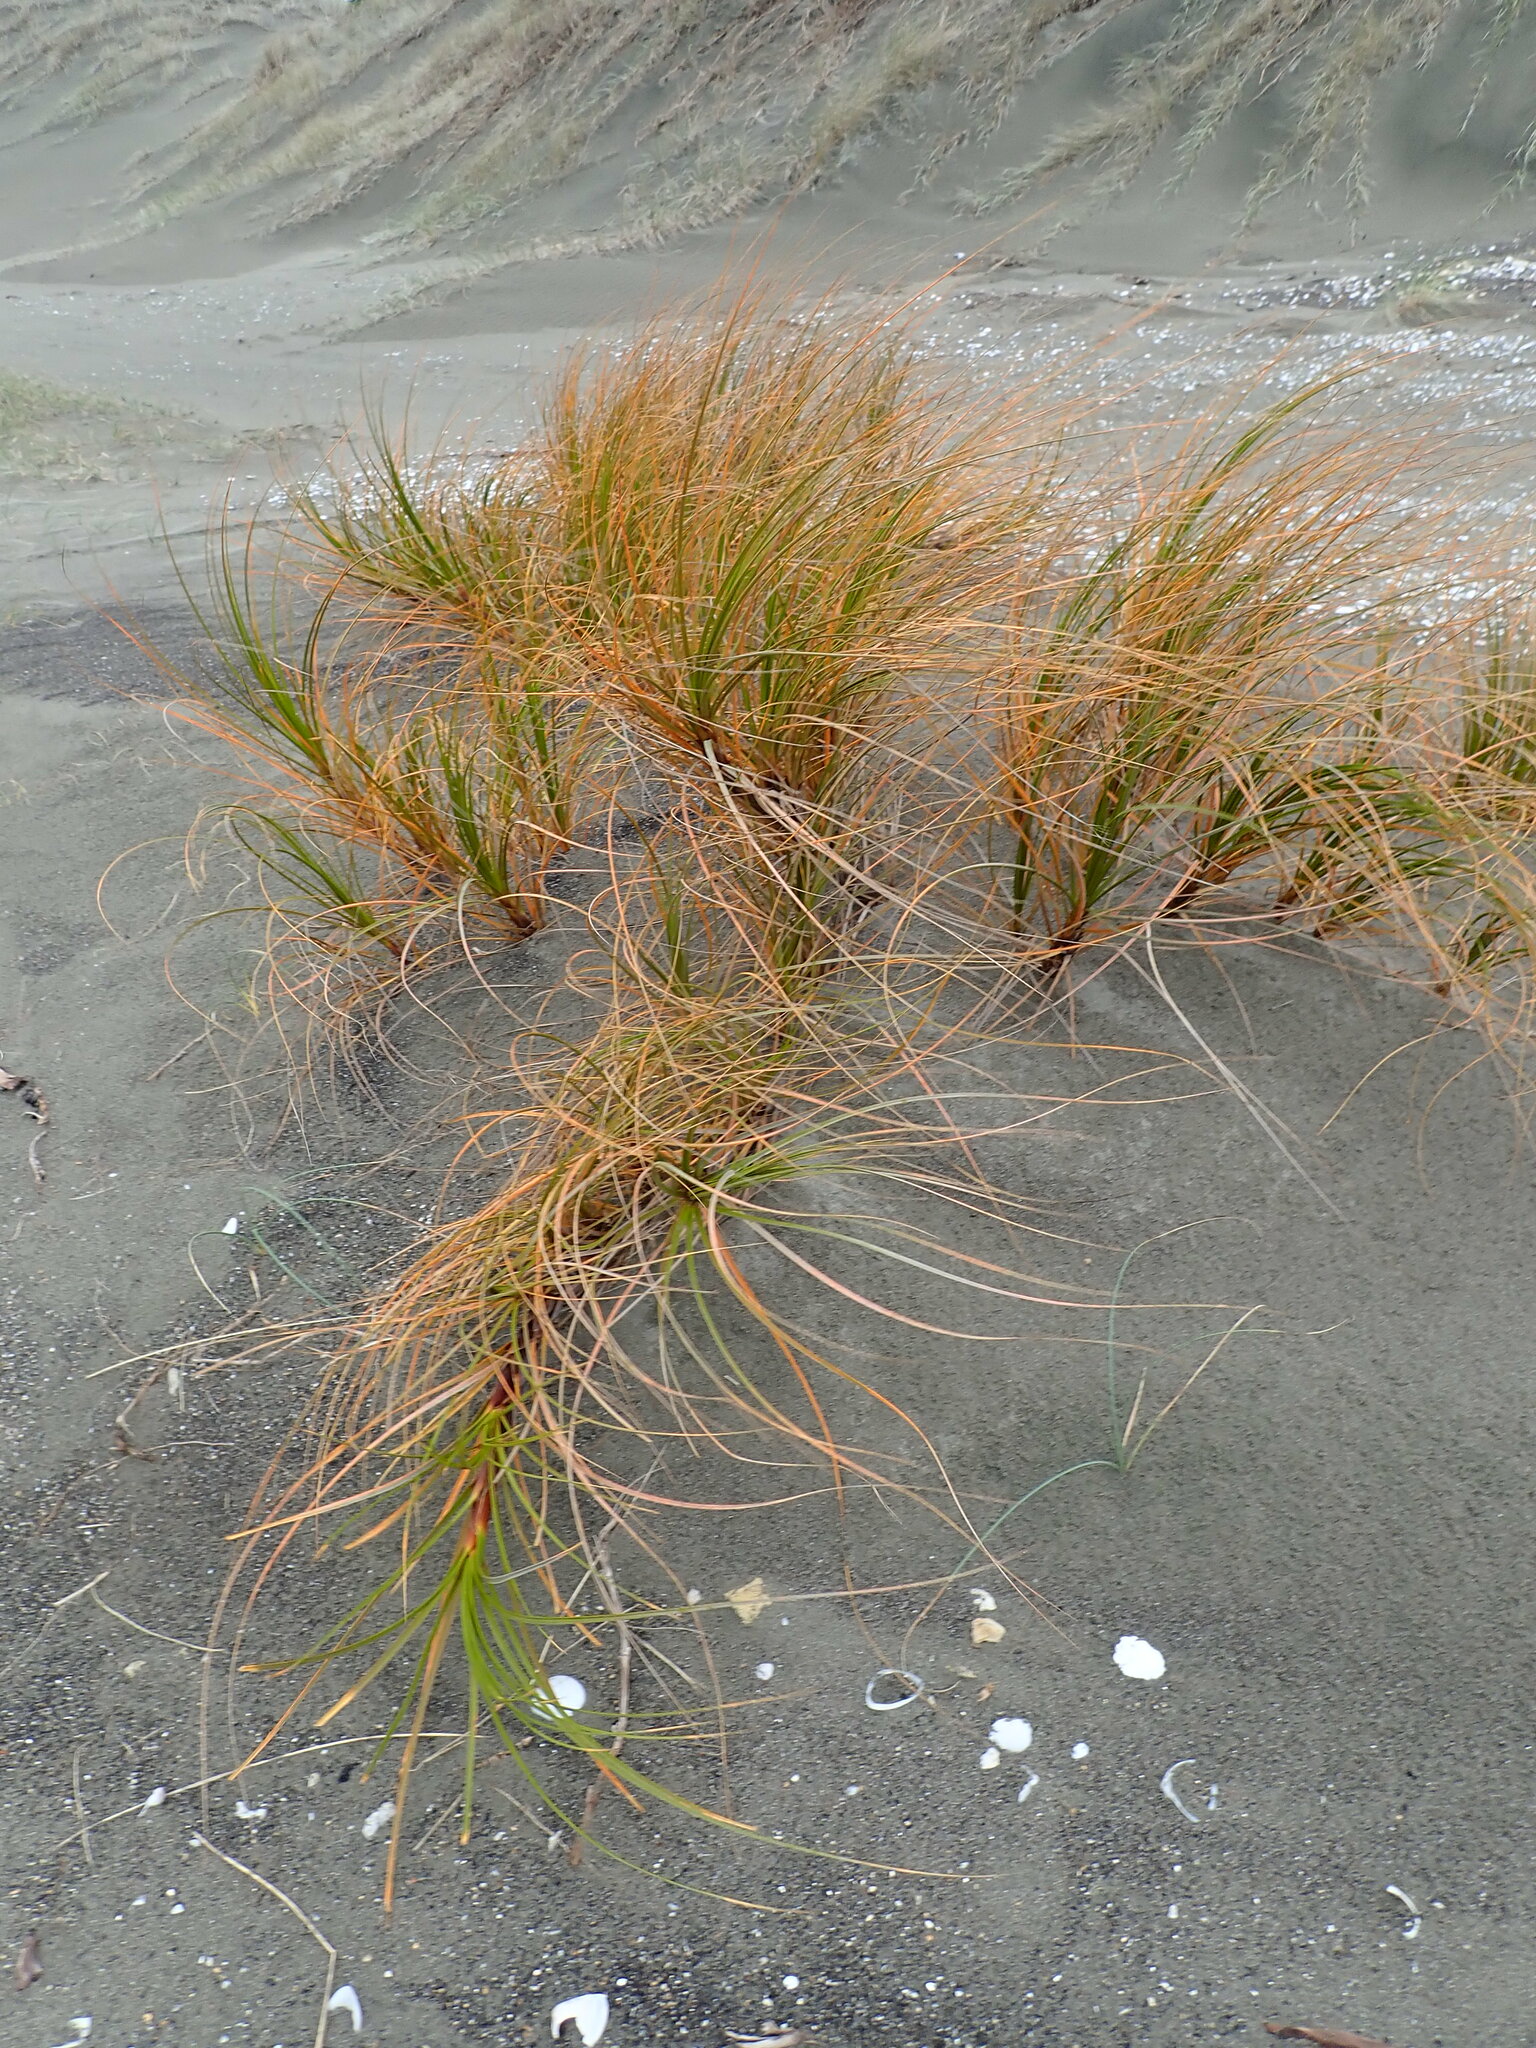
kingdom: Plantae
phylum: Tracheophyta
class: Liliopsida
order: Poales
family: Cyperaceae
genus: Ficinia
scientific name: Ficinia spiralis
